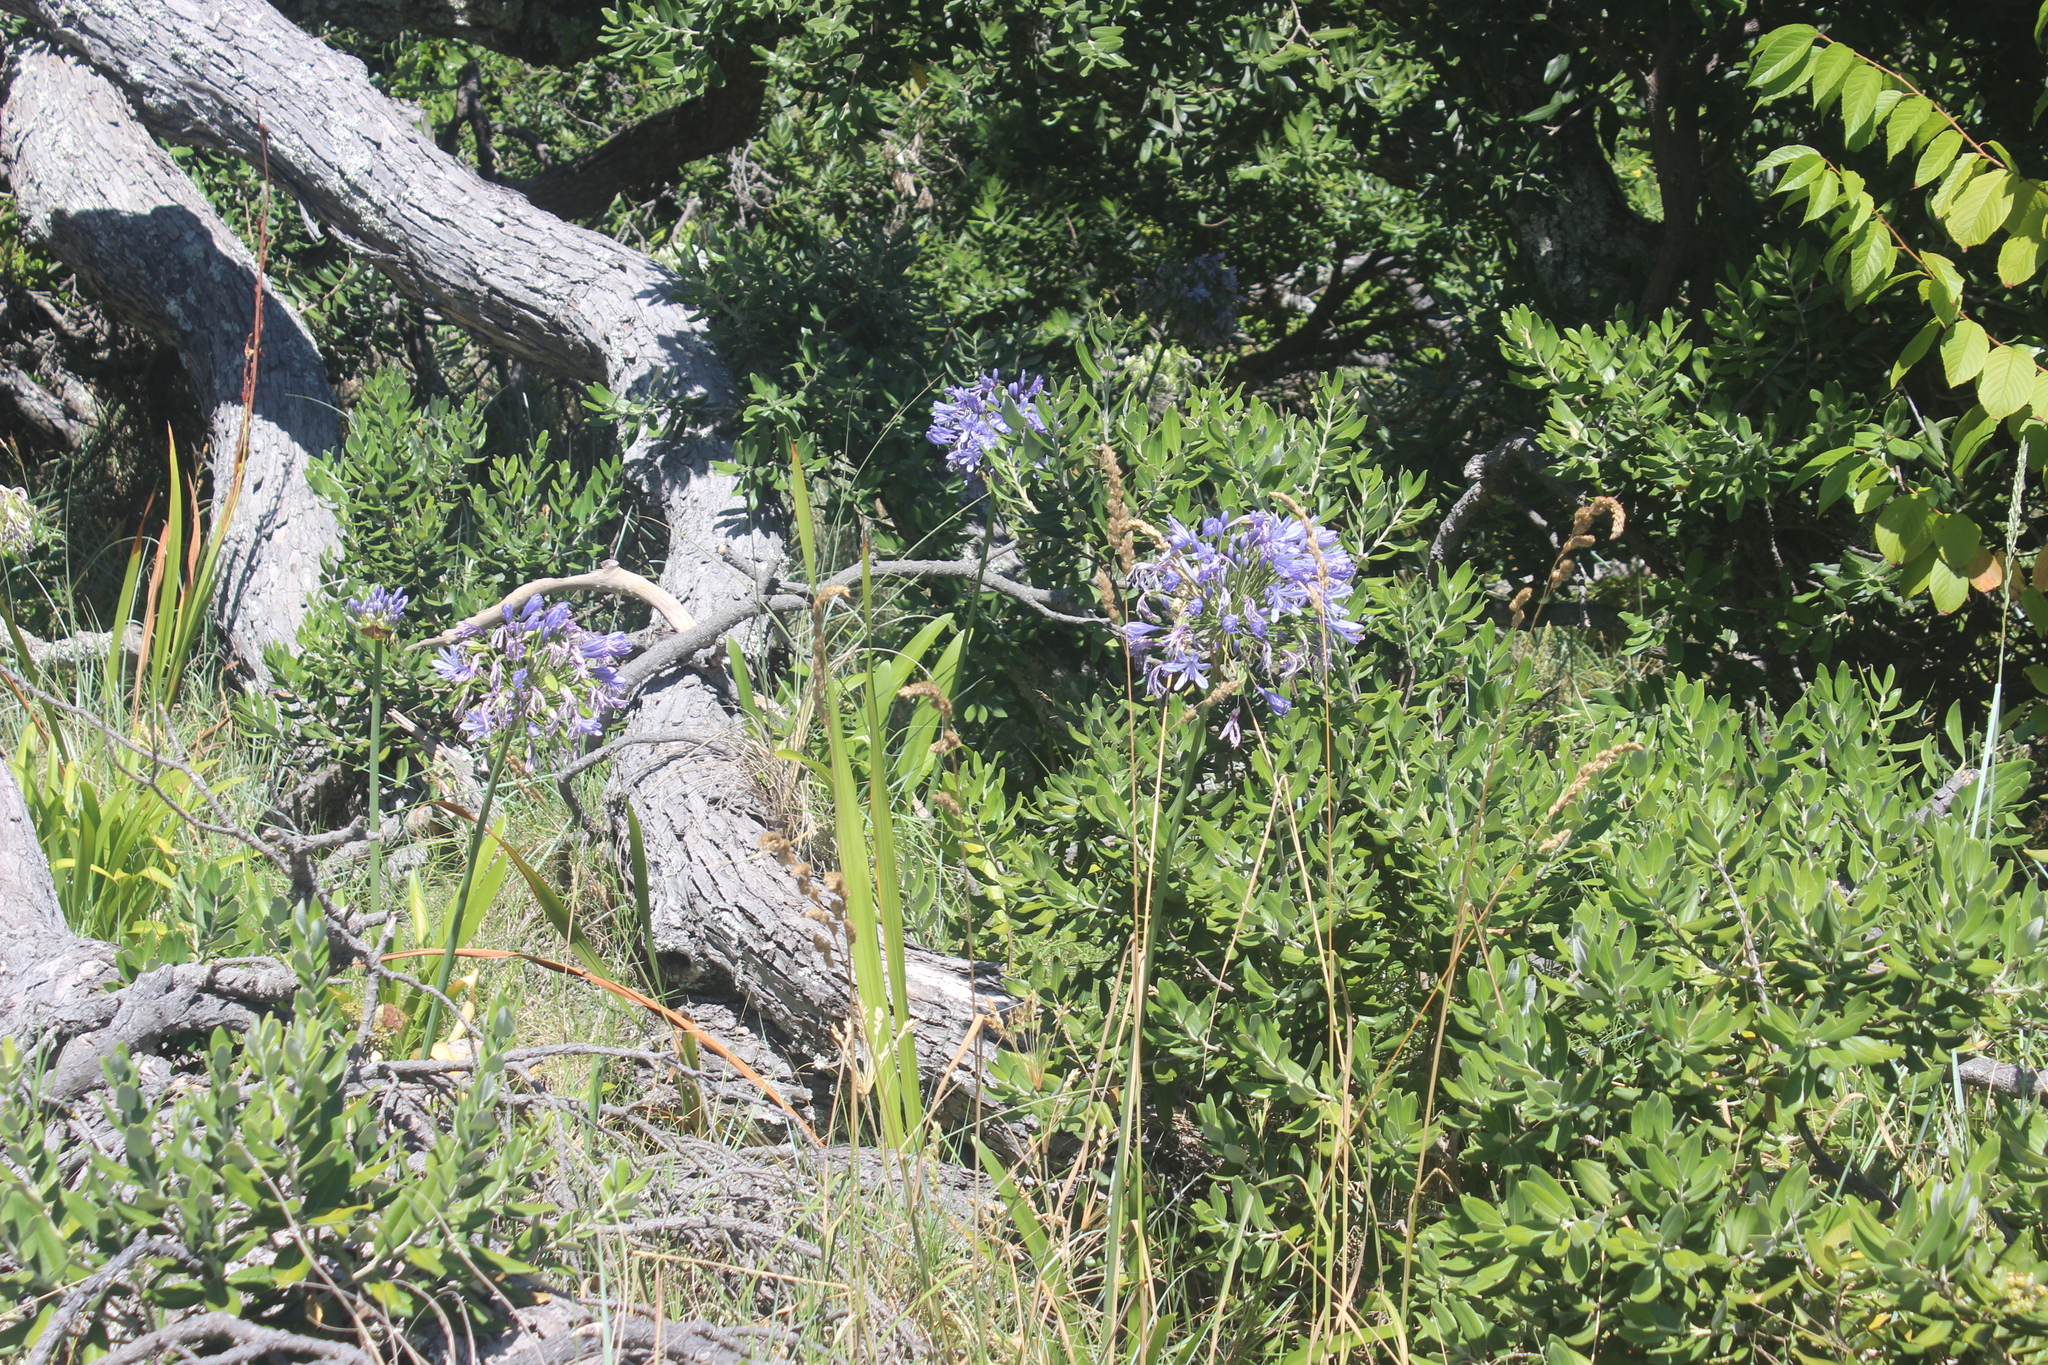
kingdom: Plantae
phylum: Tracheophyta
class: Liliopsida
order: Asparagales
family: Amaryllidaceae
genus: Agapanthus
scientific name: Agapanthus praecox
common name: African-lily
